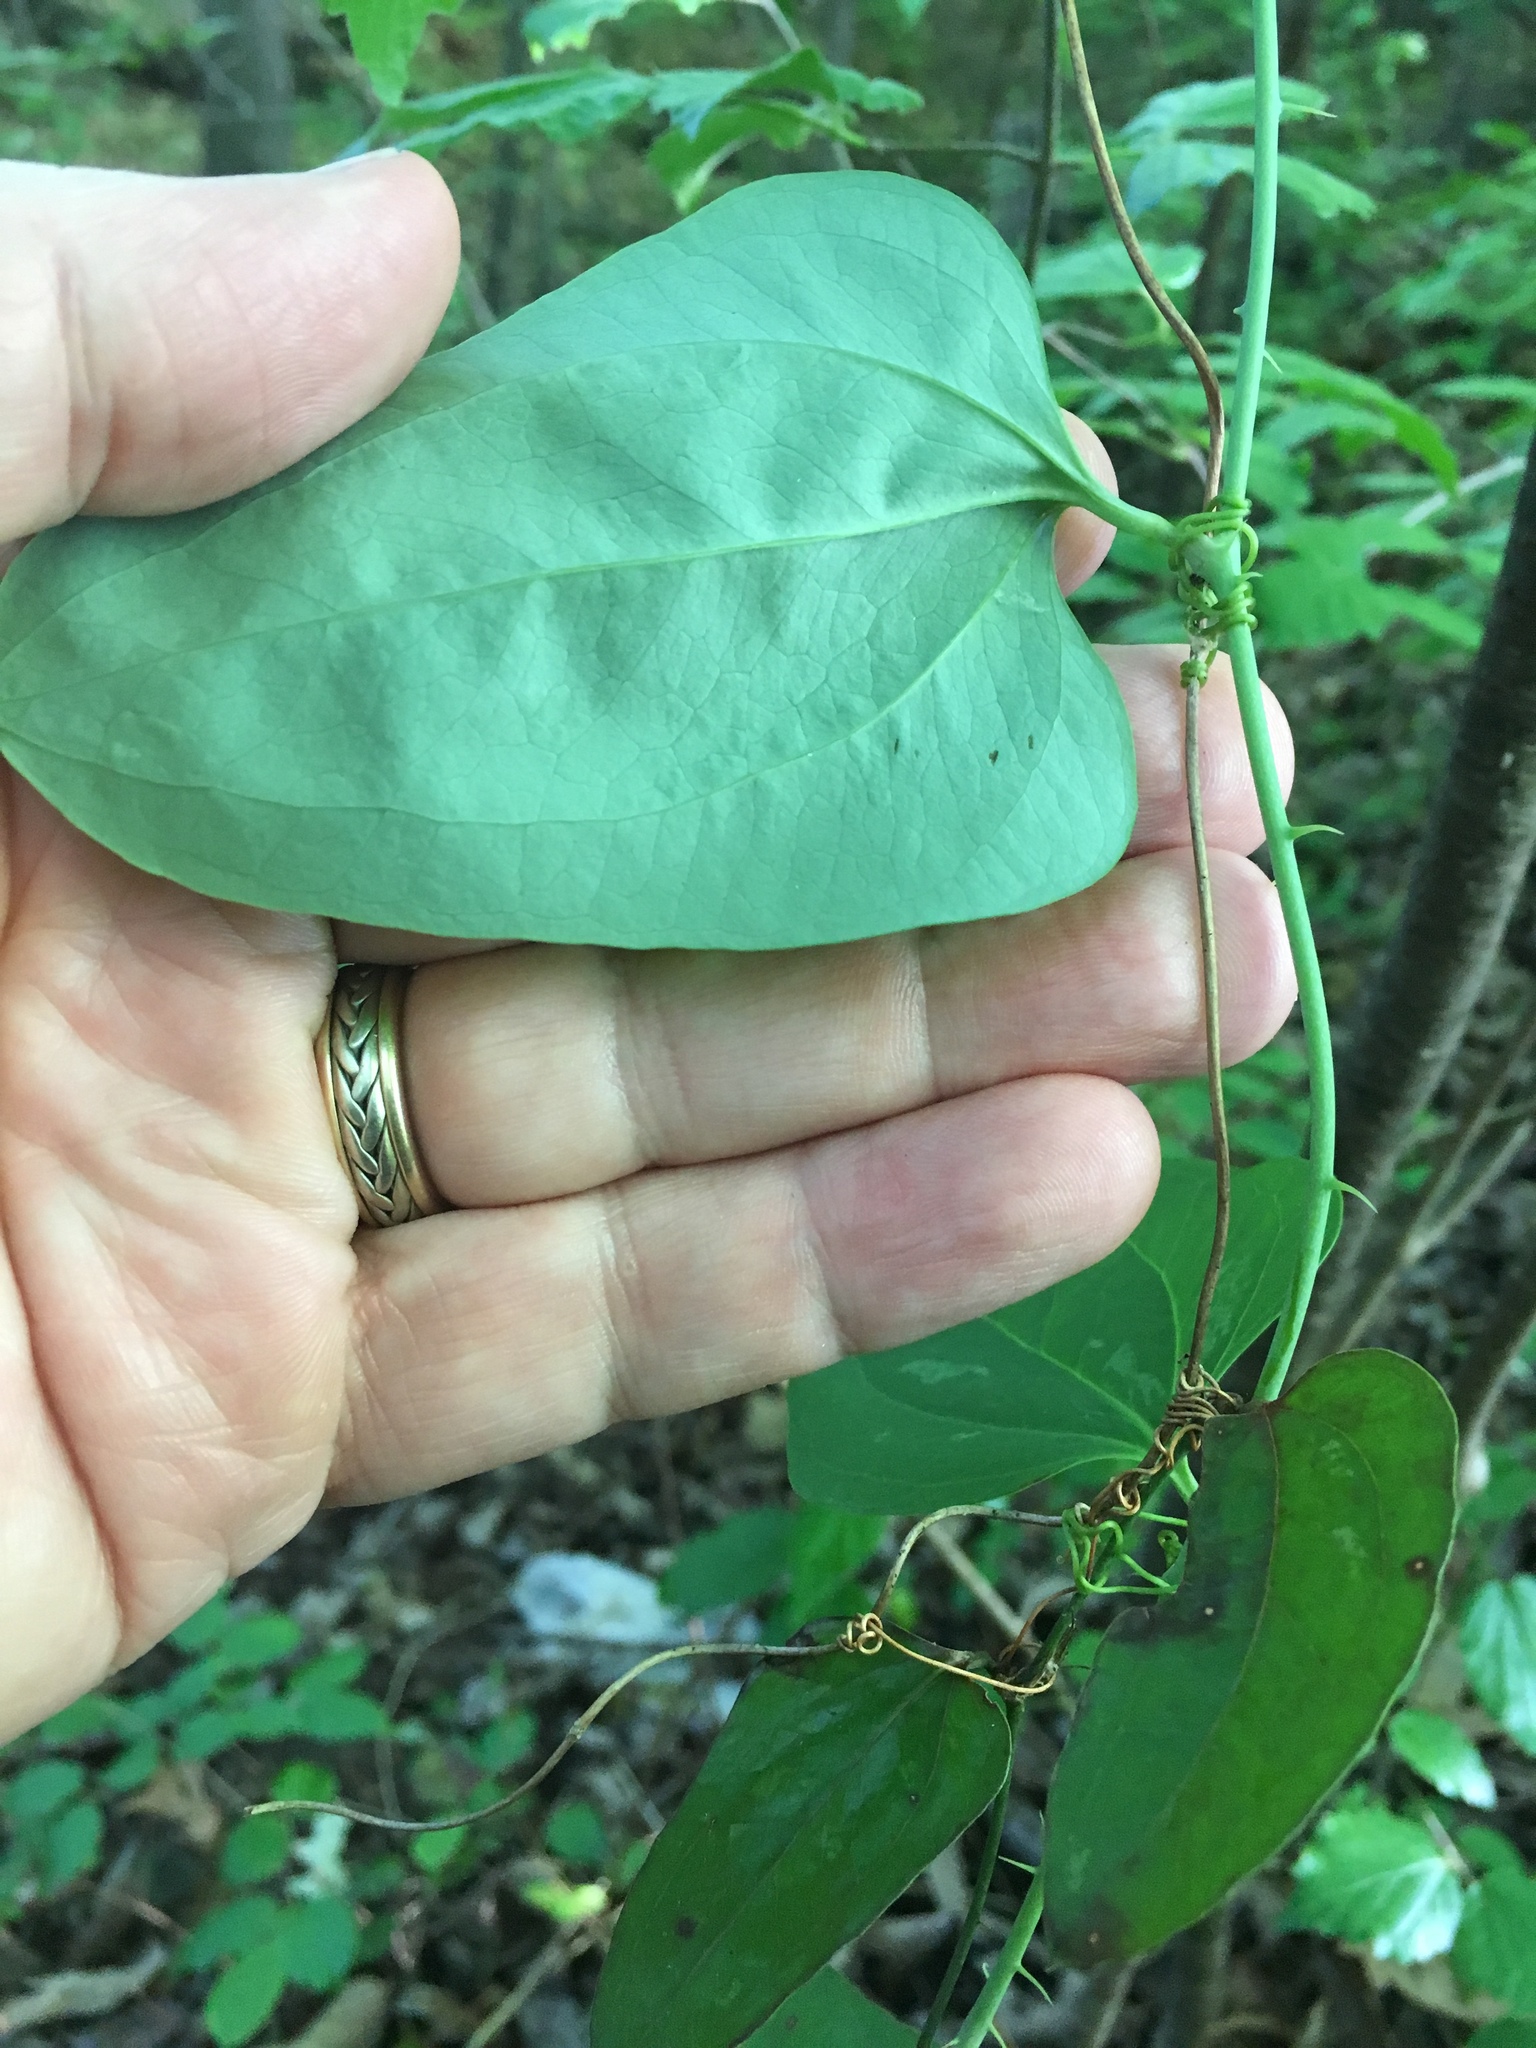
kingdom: Plantae
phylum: Tracheophyta
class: Liliopsida
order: Liliales
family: Smilacaceae
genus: Smilax
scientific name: Smilax glauca
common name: Cat greenbrier
